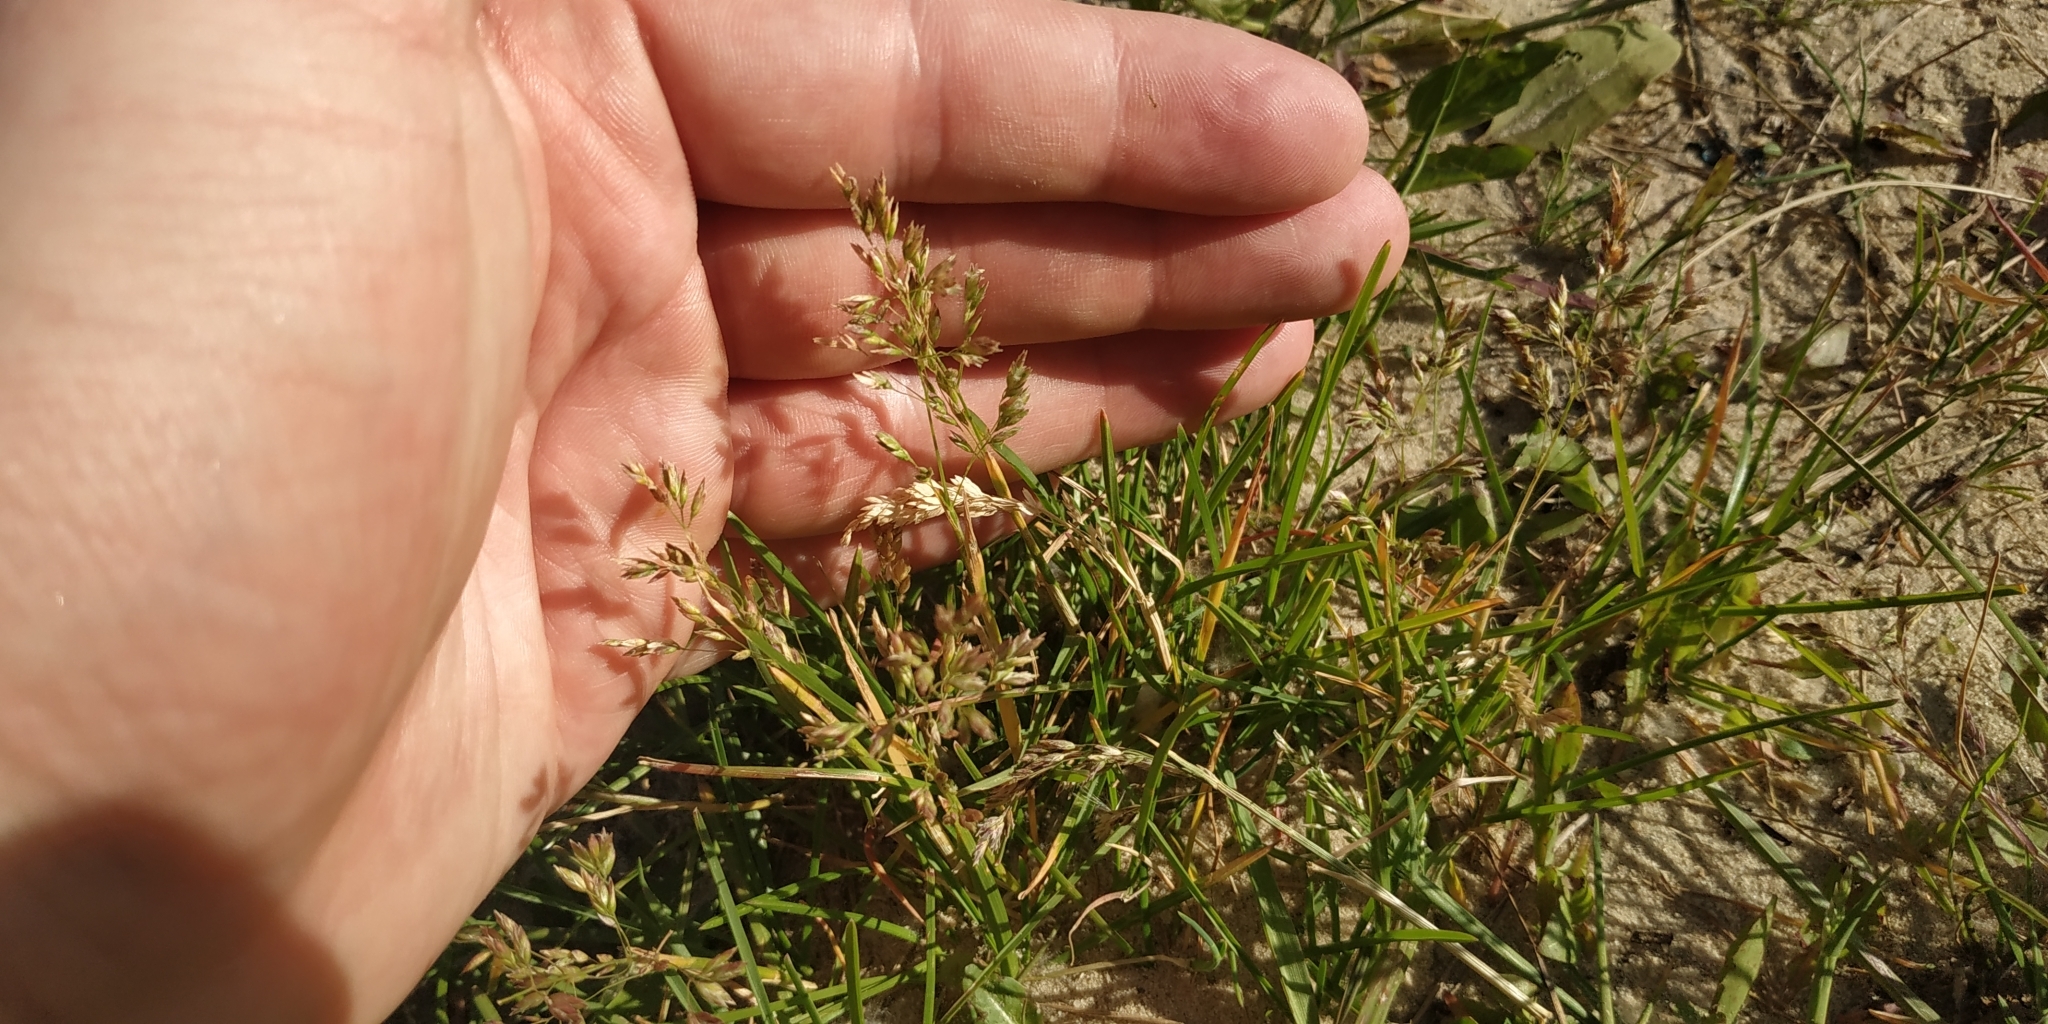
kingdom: Plantae
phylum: Tracheophyta
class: Liliopsida
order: Poales
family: Poaceae
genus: Poa
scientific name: Poa pratensis
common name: Kentucky bluegrass
